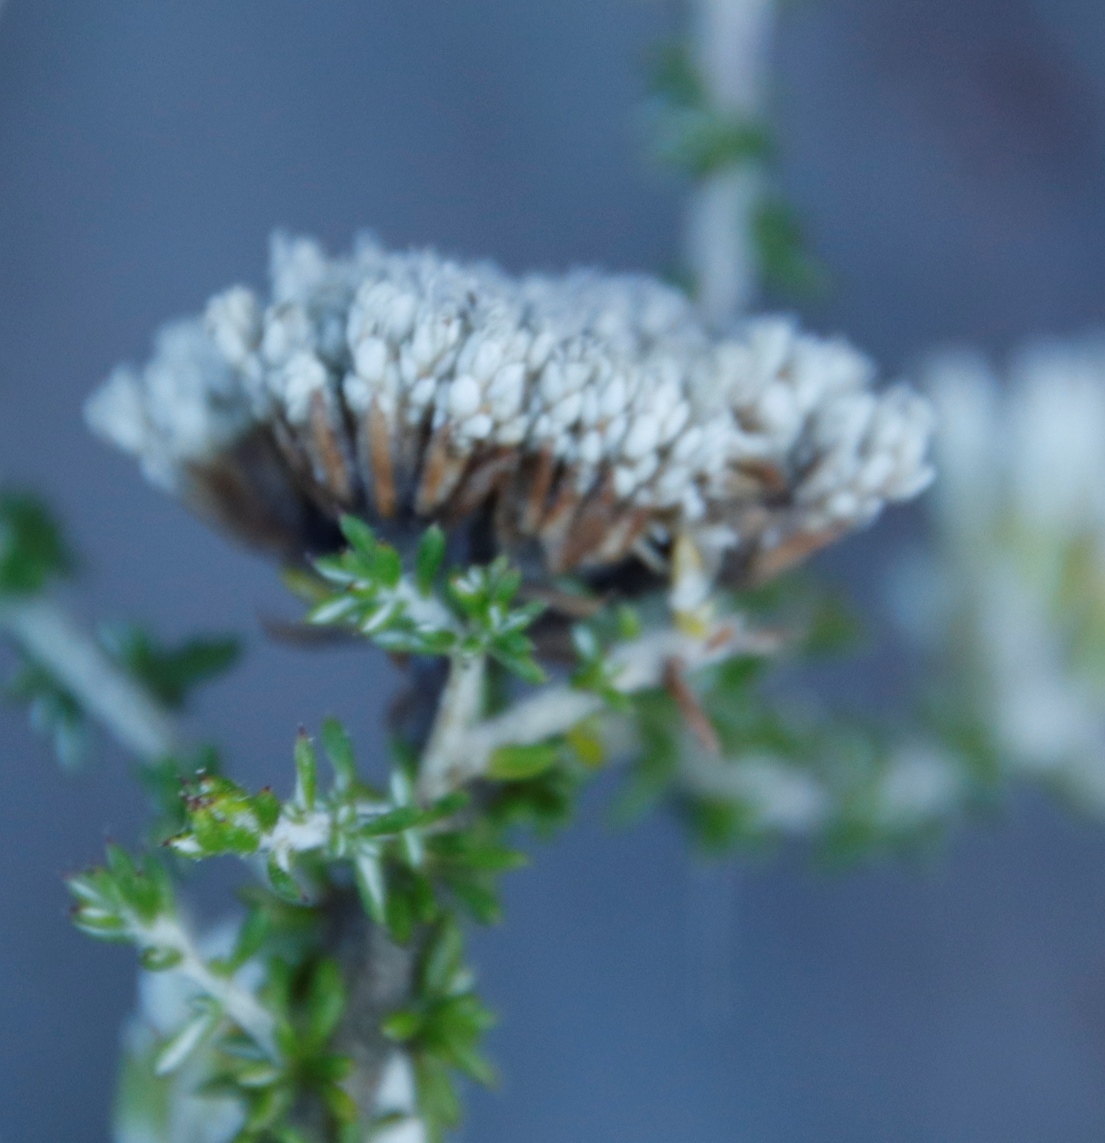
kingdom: Plantae
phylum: Tracheophyta
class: Magnoliopsida
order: Asterales
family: Asteraceae
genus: Metalasia
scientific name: Metalasia brevifolia
